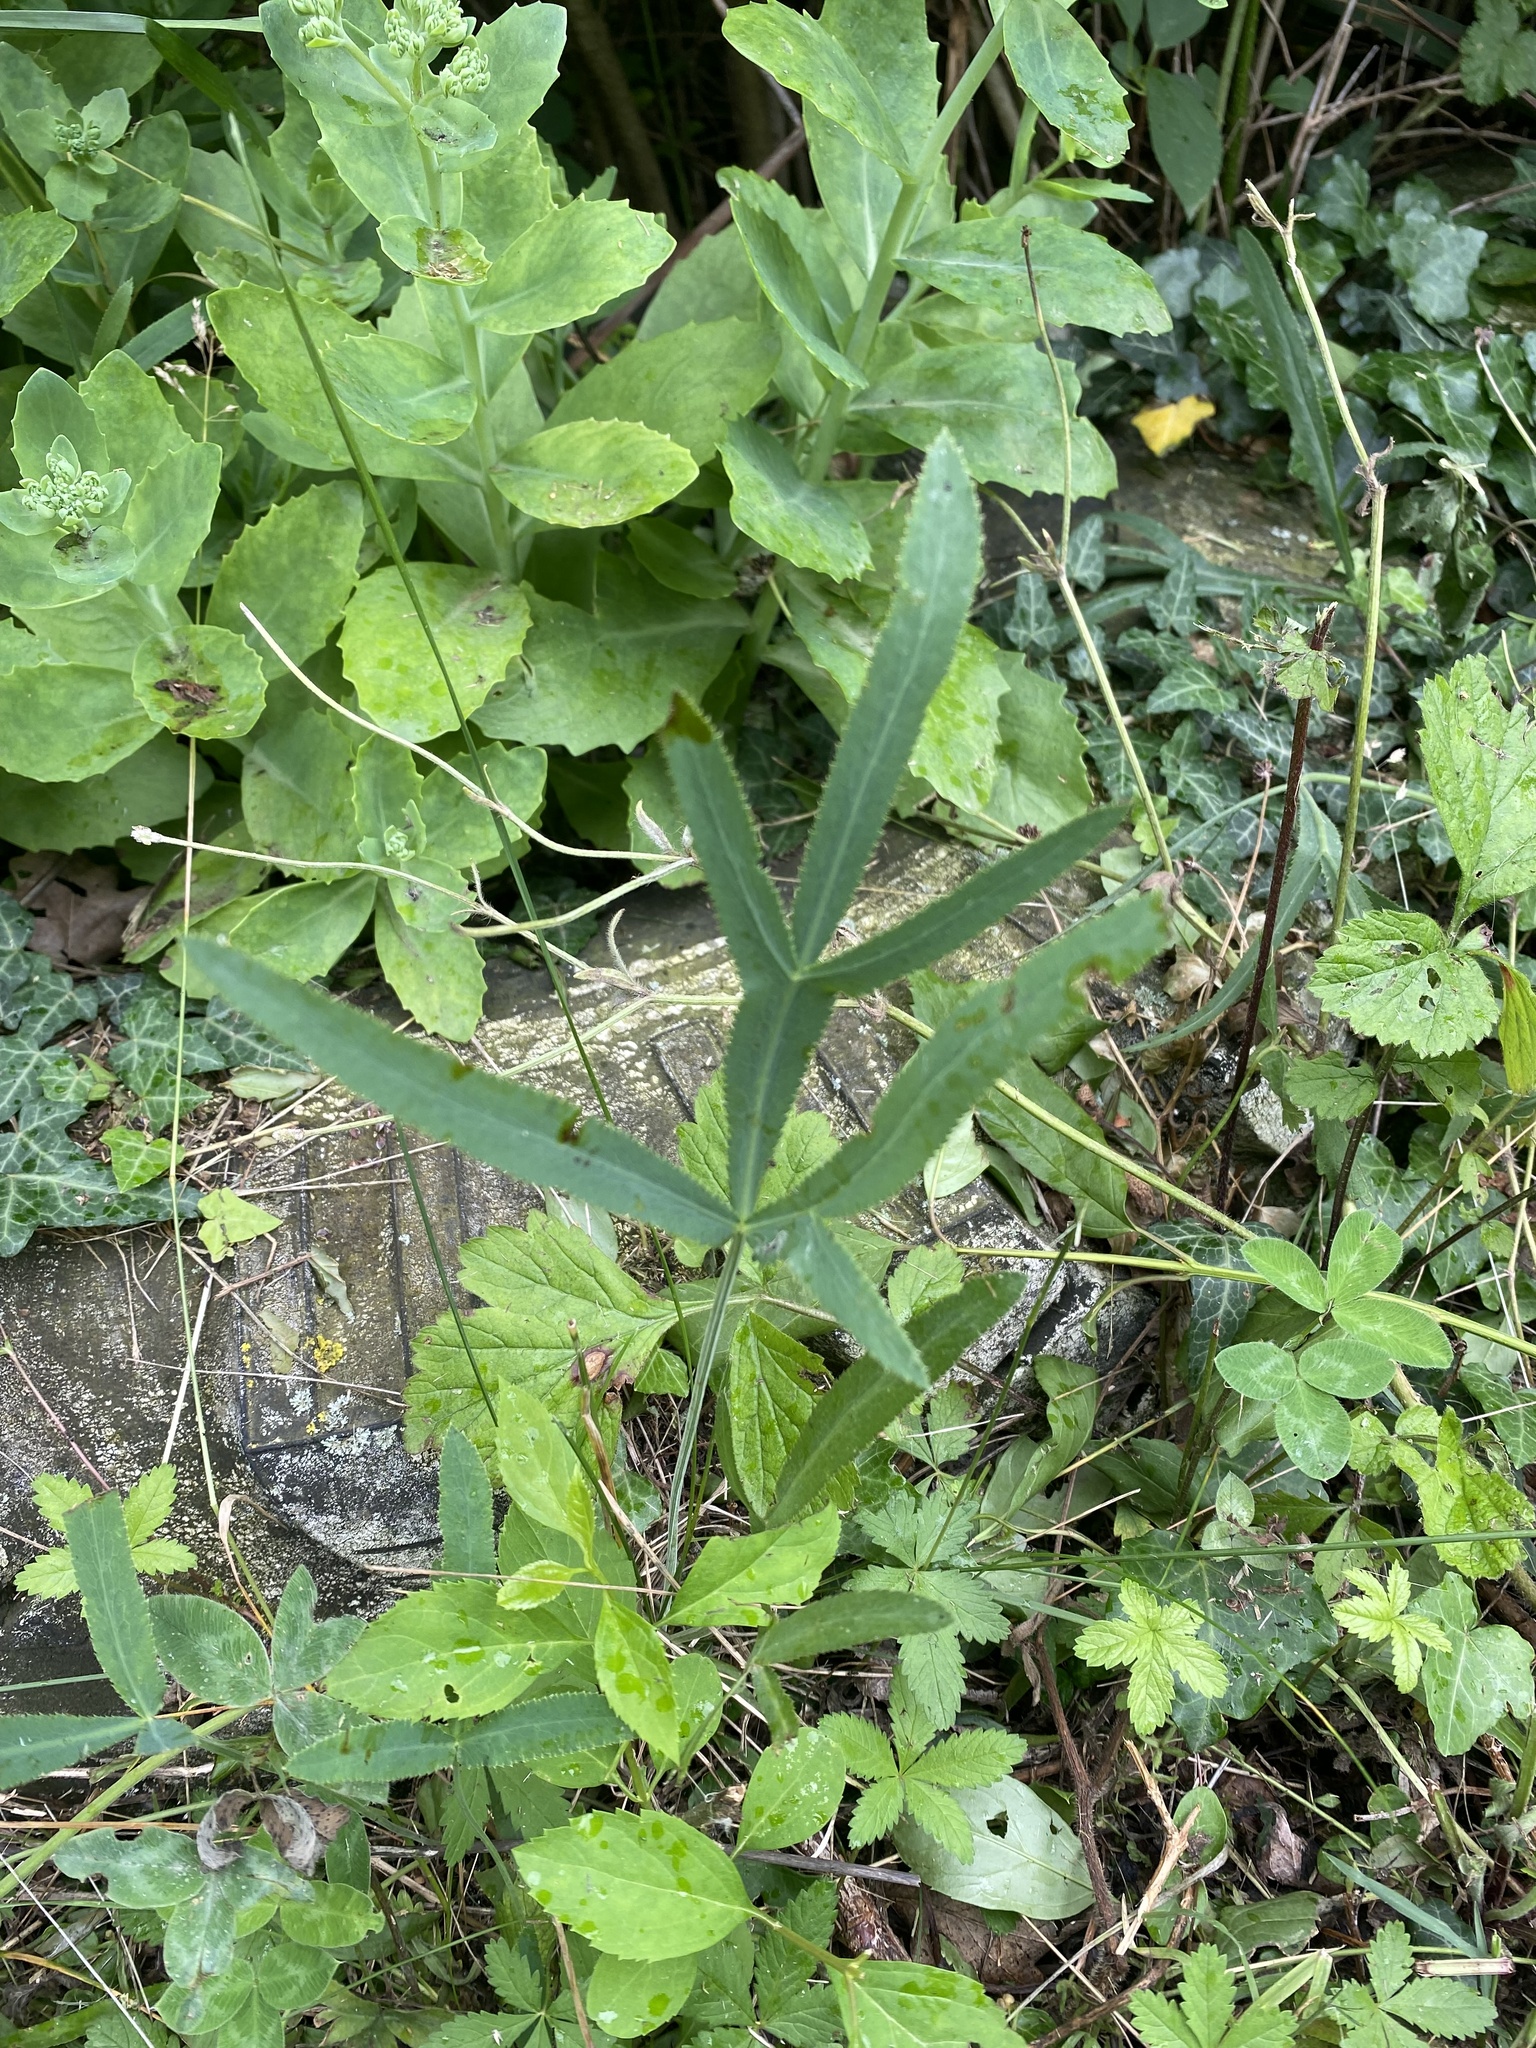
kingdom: Plantae
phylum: Tracheophyta
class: Magnoliopsida
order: Fabales
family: Fabaceae
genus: Lathyrus
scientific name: Lathyrus pratensis
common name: Meadow vetchling
